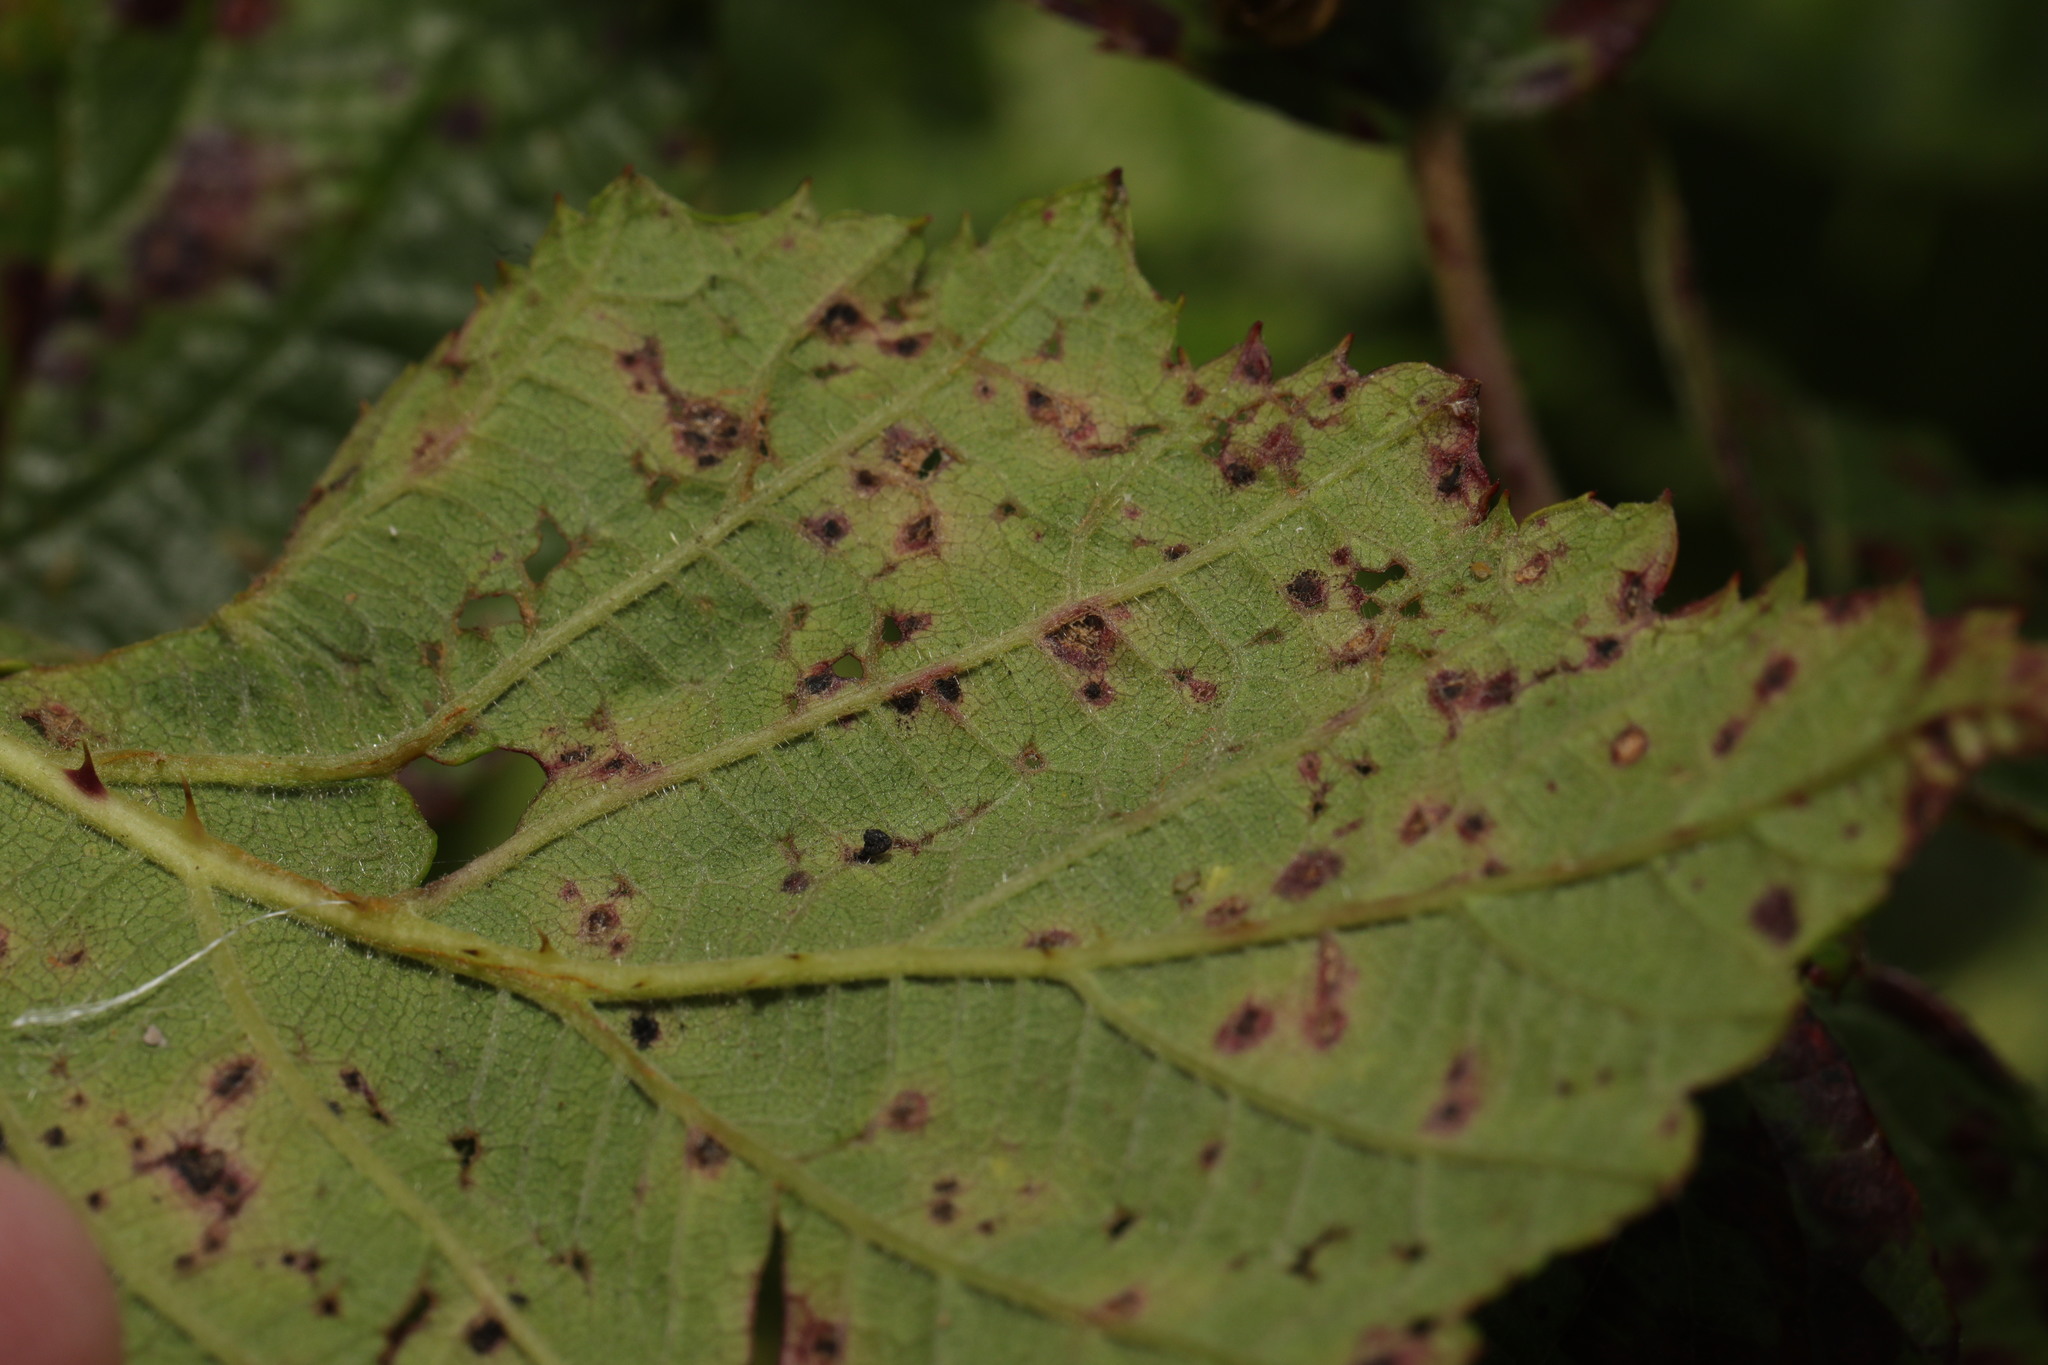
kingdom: Fungi
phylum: Basidiomycota
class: Pucciniomycetes
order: Pucciniales
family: Phragmidiaceae
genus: Phragmidium
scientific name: Phragmidium violaceum
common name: Violet bramble rust
